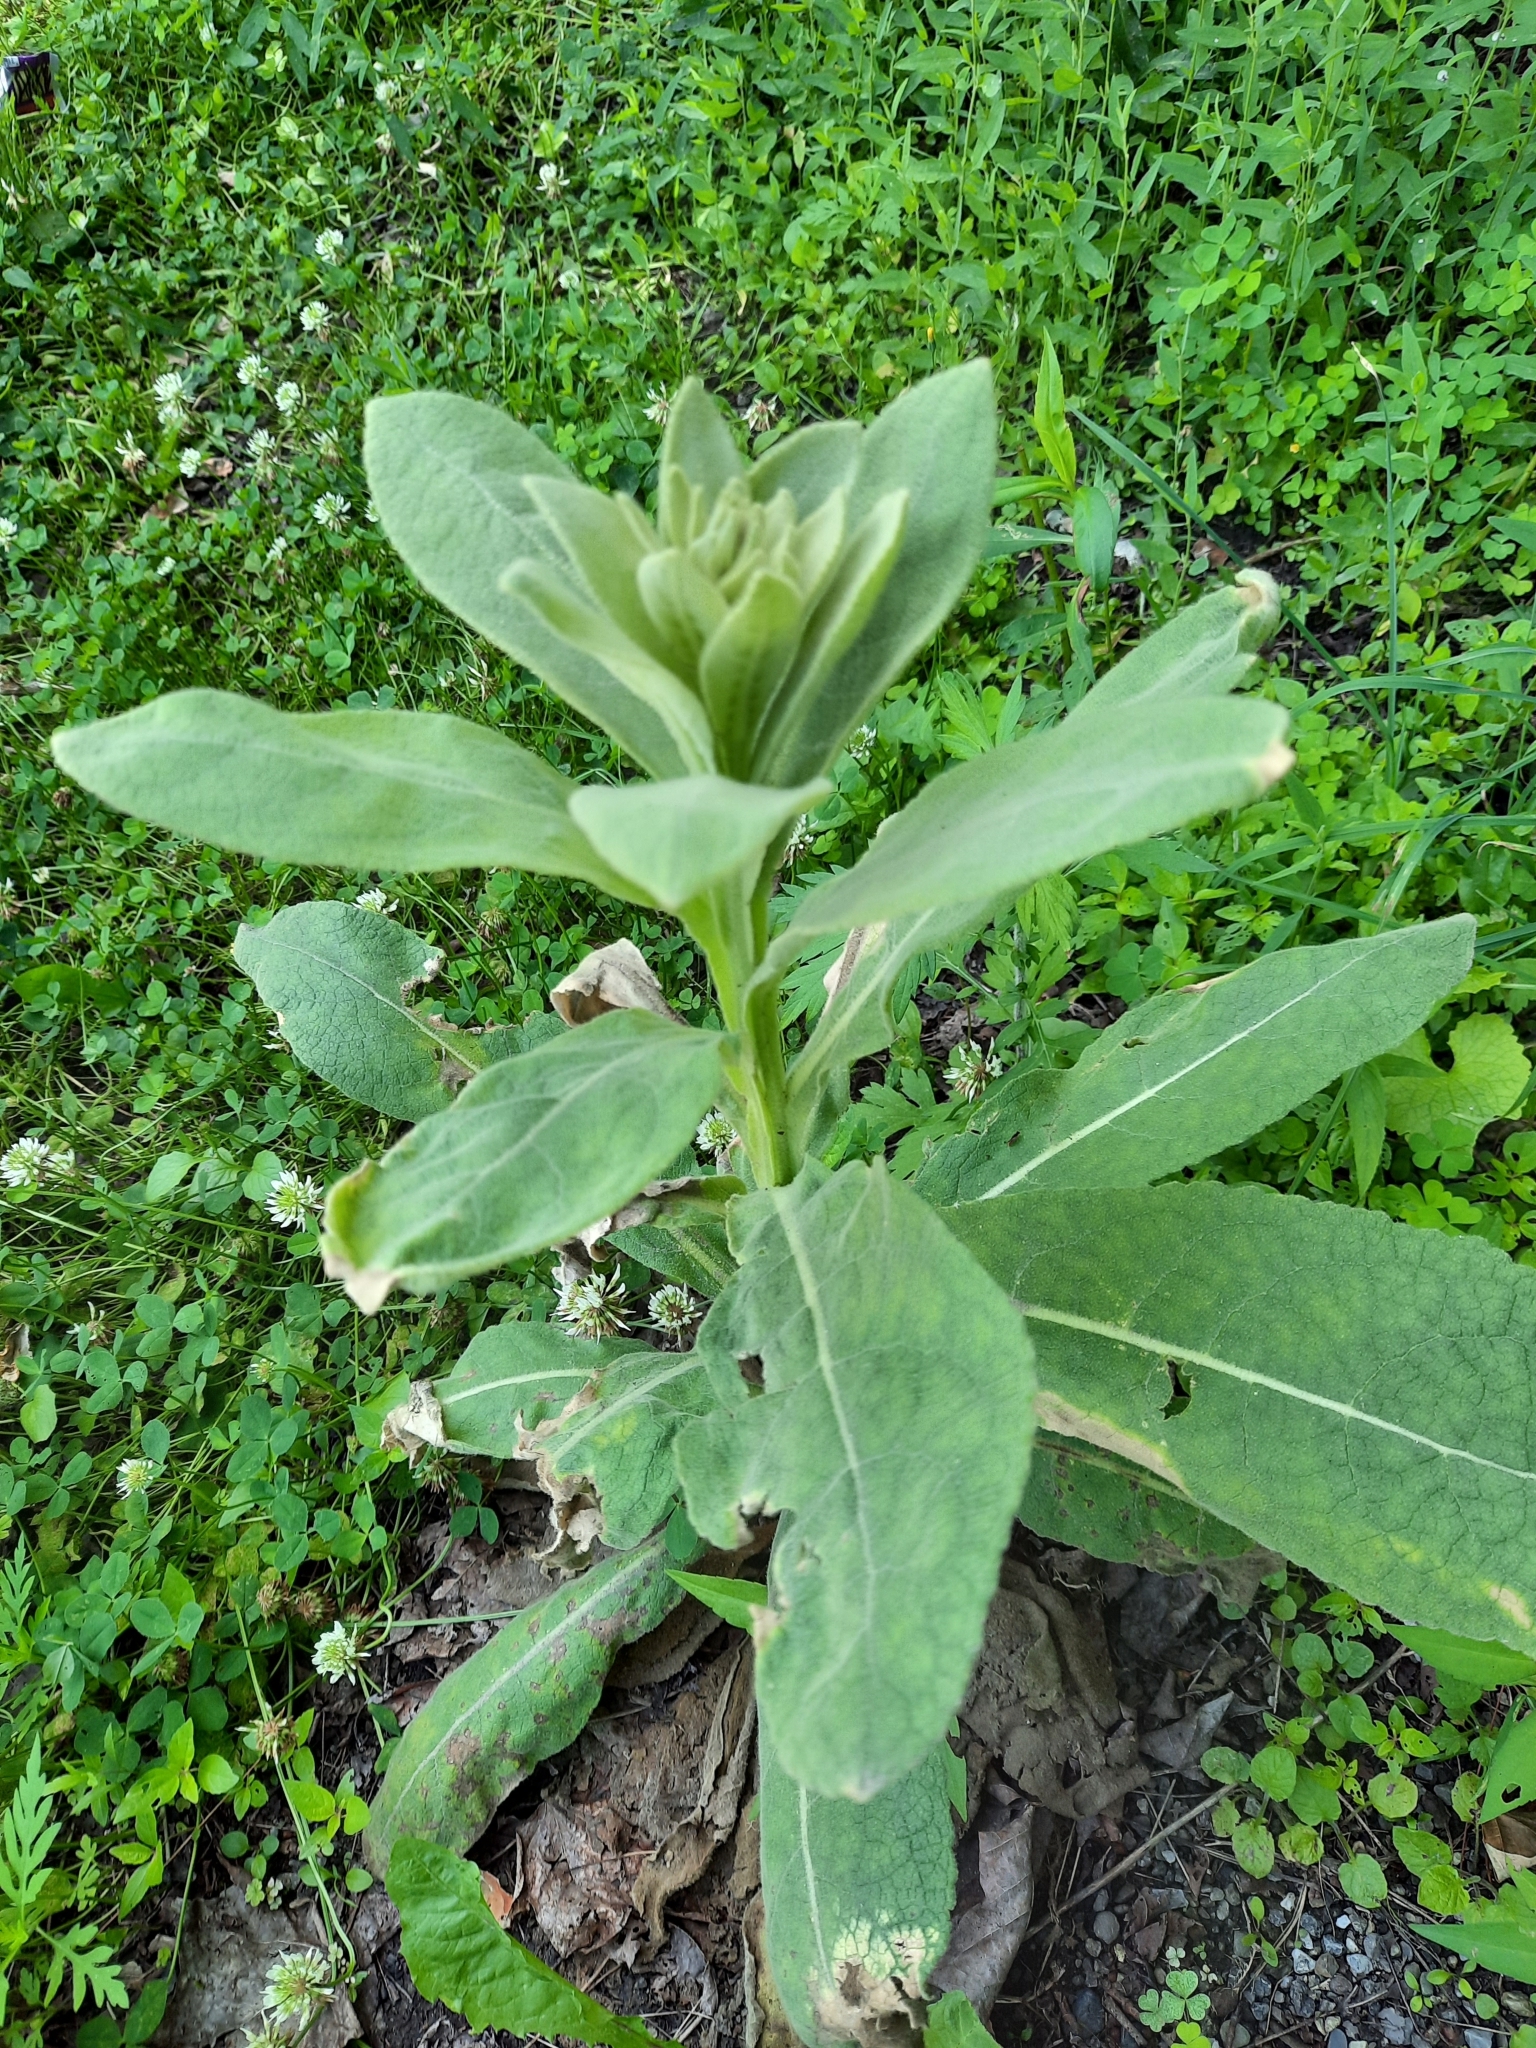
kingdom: Plantae
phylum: Tracheophyta
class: Magnoliopsida
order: Lamiales
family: Scrophulariaceae
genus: Verbascum
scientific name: Verbascum thapsus
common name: Common mullein
